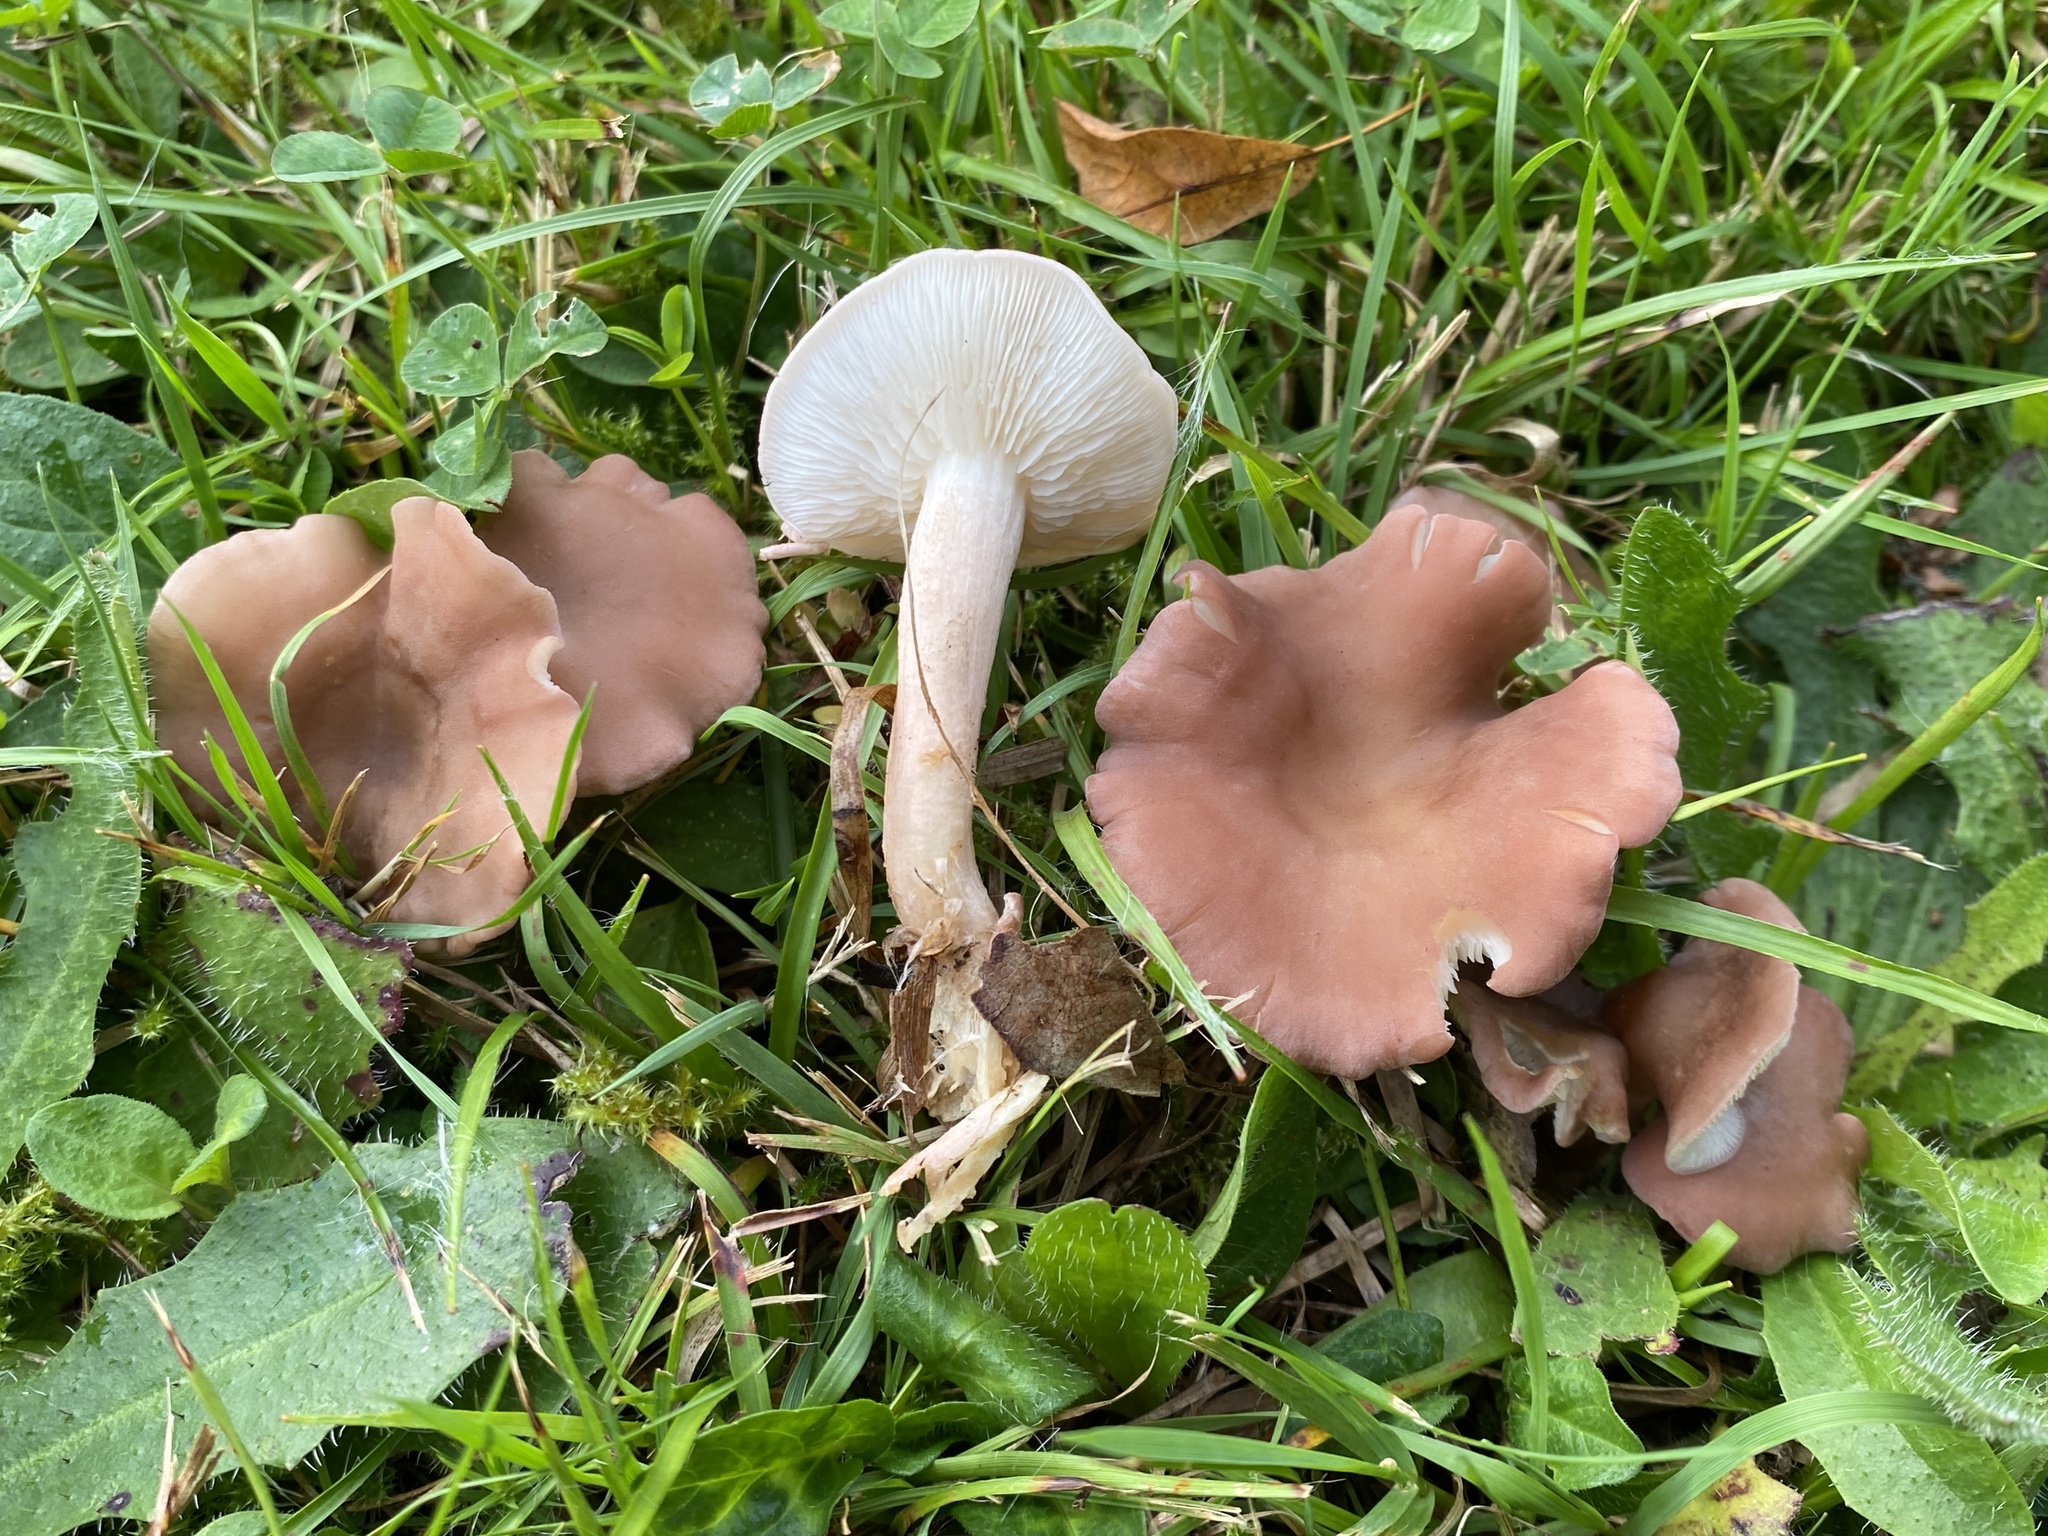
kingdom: Fungi
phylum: Basidiomycota
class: Agaricomycetes
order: Agaricales
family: Lyophyllaceae
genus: Calocybe
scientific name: Calocybe carnea
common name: Pink domecap
